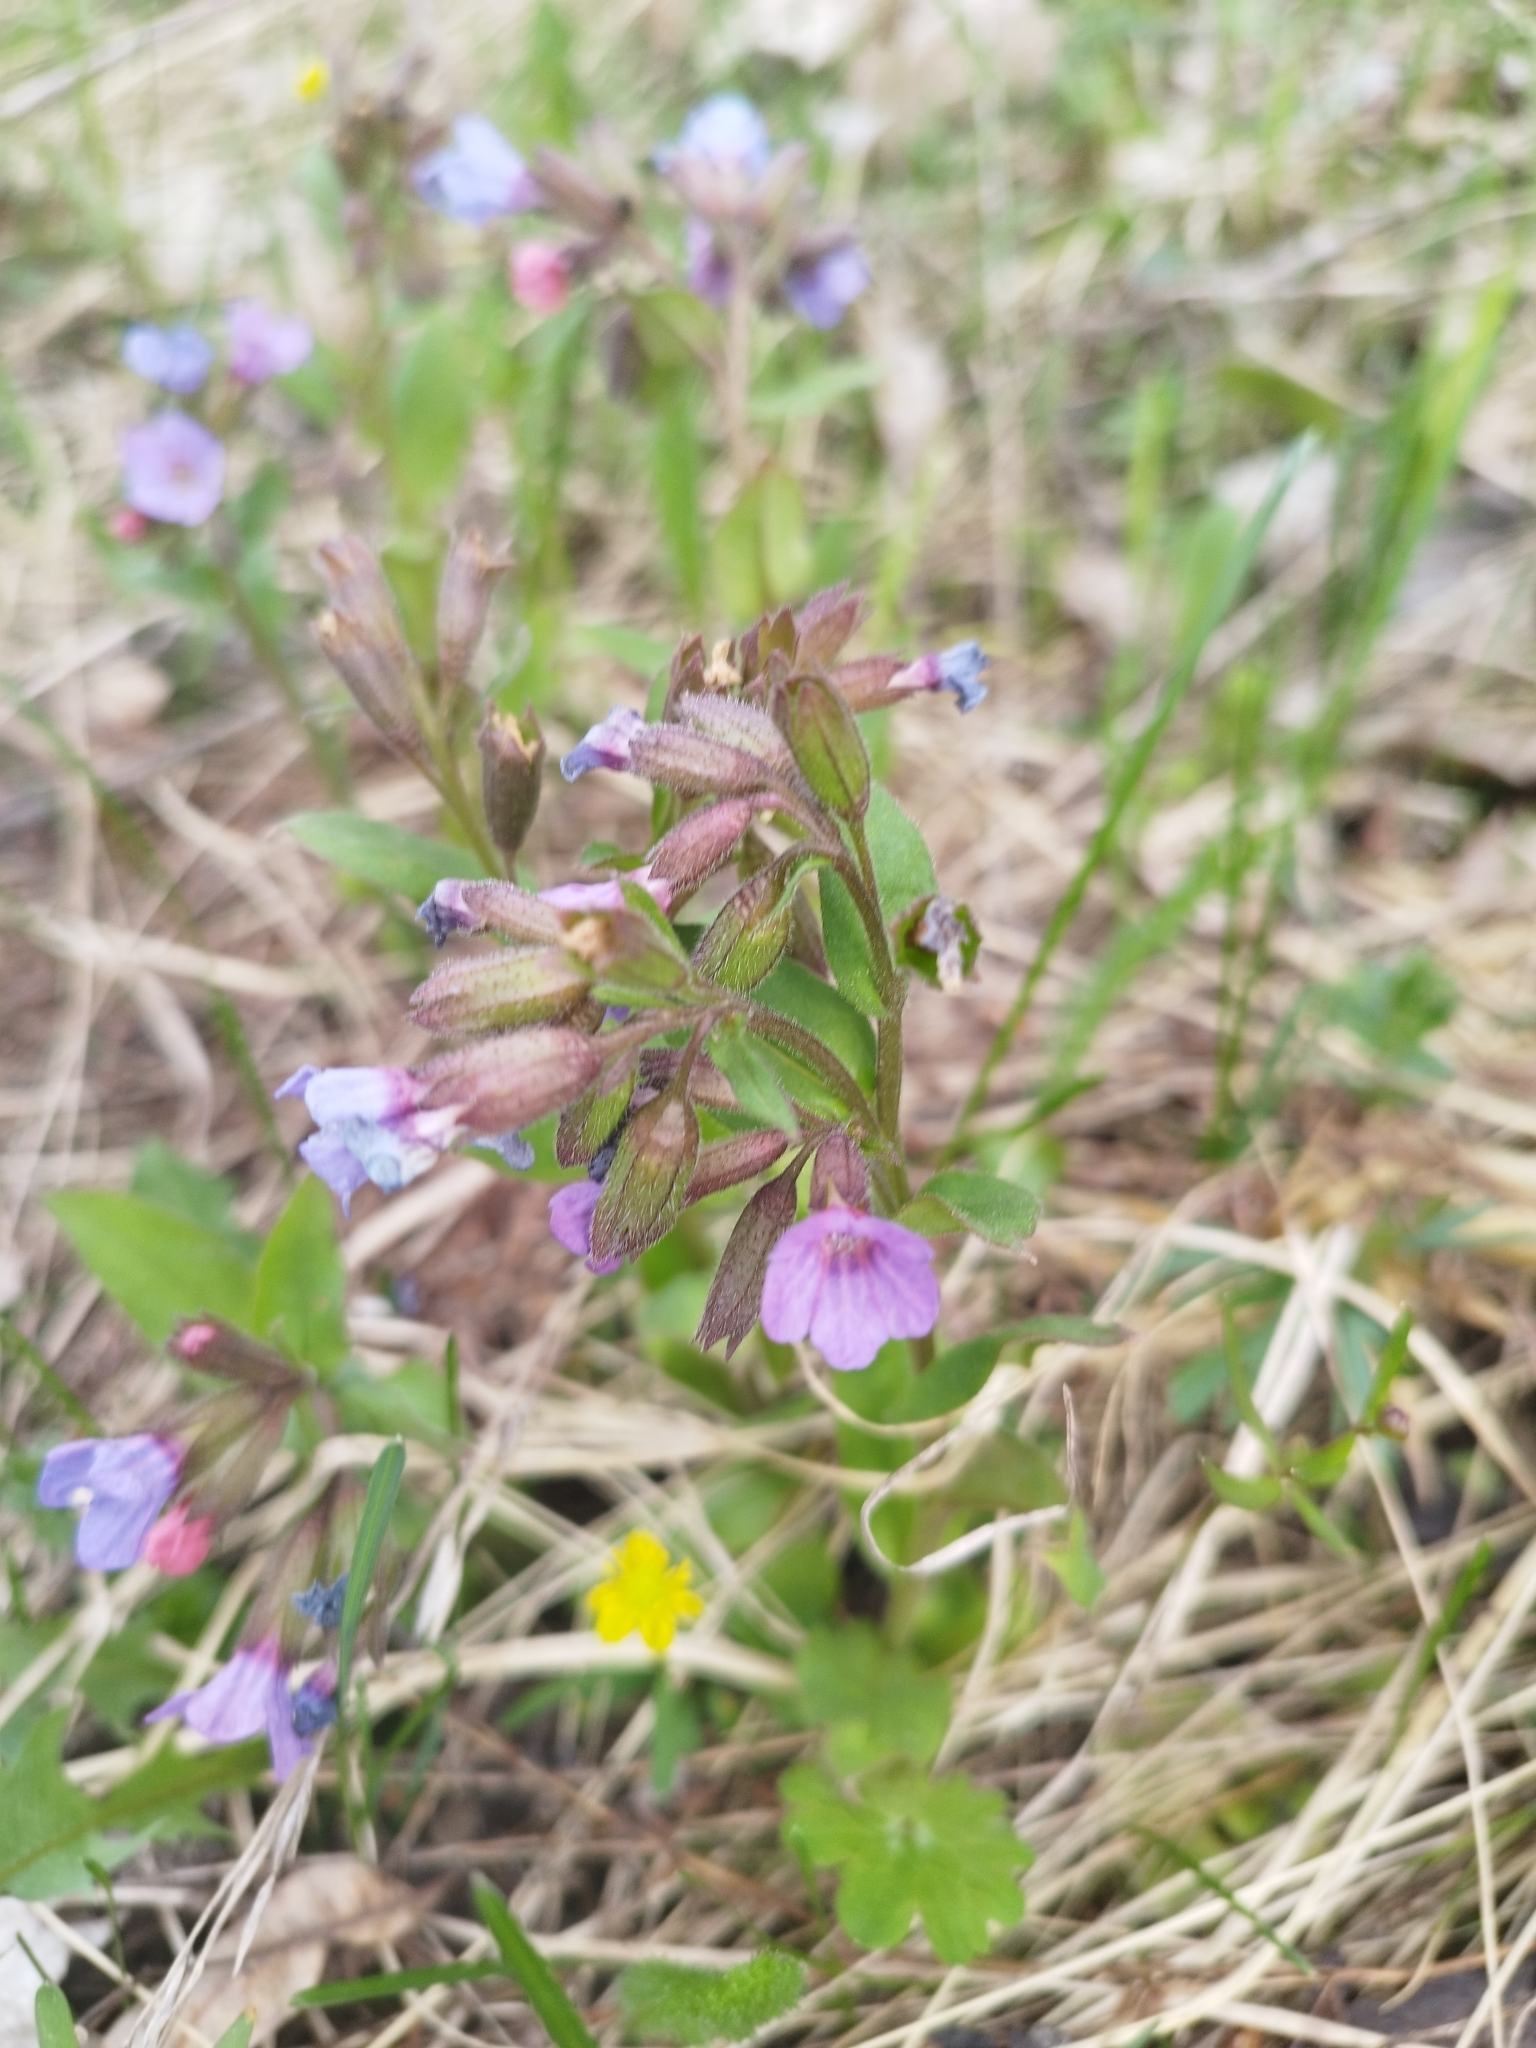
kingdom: Plantae
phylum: Tracheophyta
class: Magnoliopsida
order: Boraginales
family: Boraginaceae
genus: Pulmonaria
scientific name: Pulmonaria obscura
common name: Suffolk lungwort
